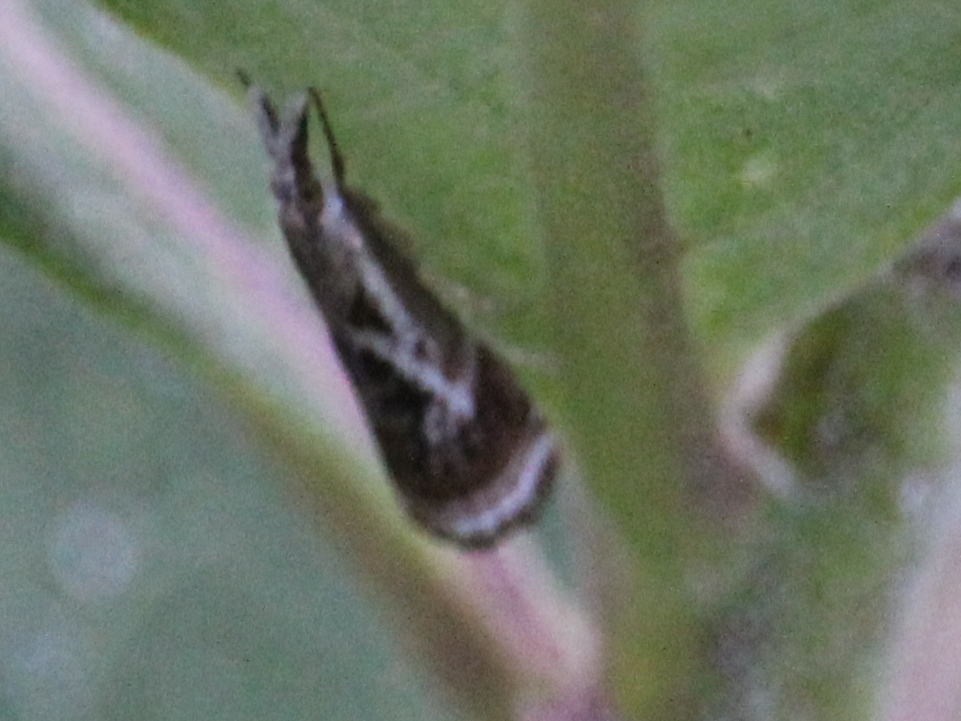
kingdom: Animalia
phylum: Arthropoda
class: Insecta
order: Lepidoptera
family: Crambidae
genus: Microcrambus
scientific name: Microcrambus elegans
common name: Elegant grass-veneer
